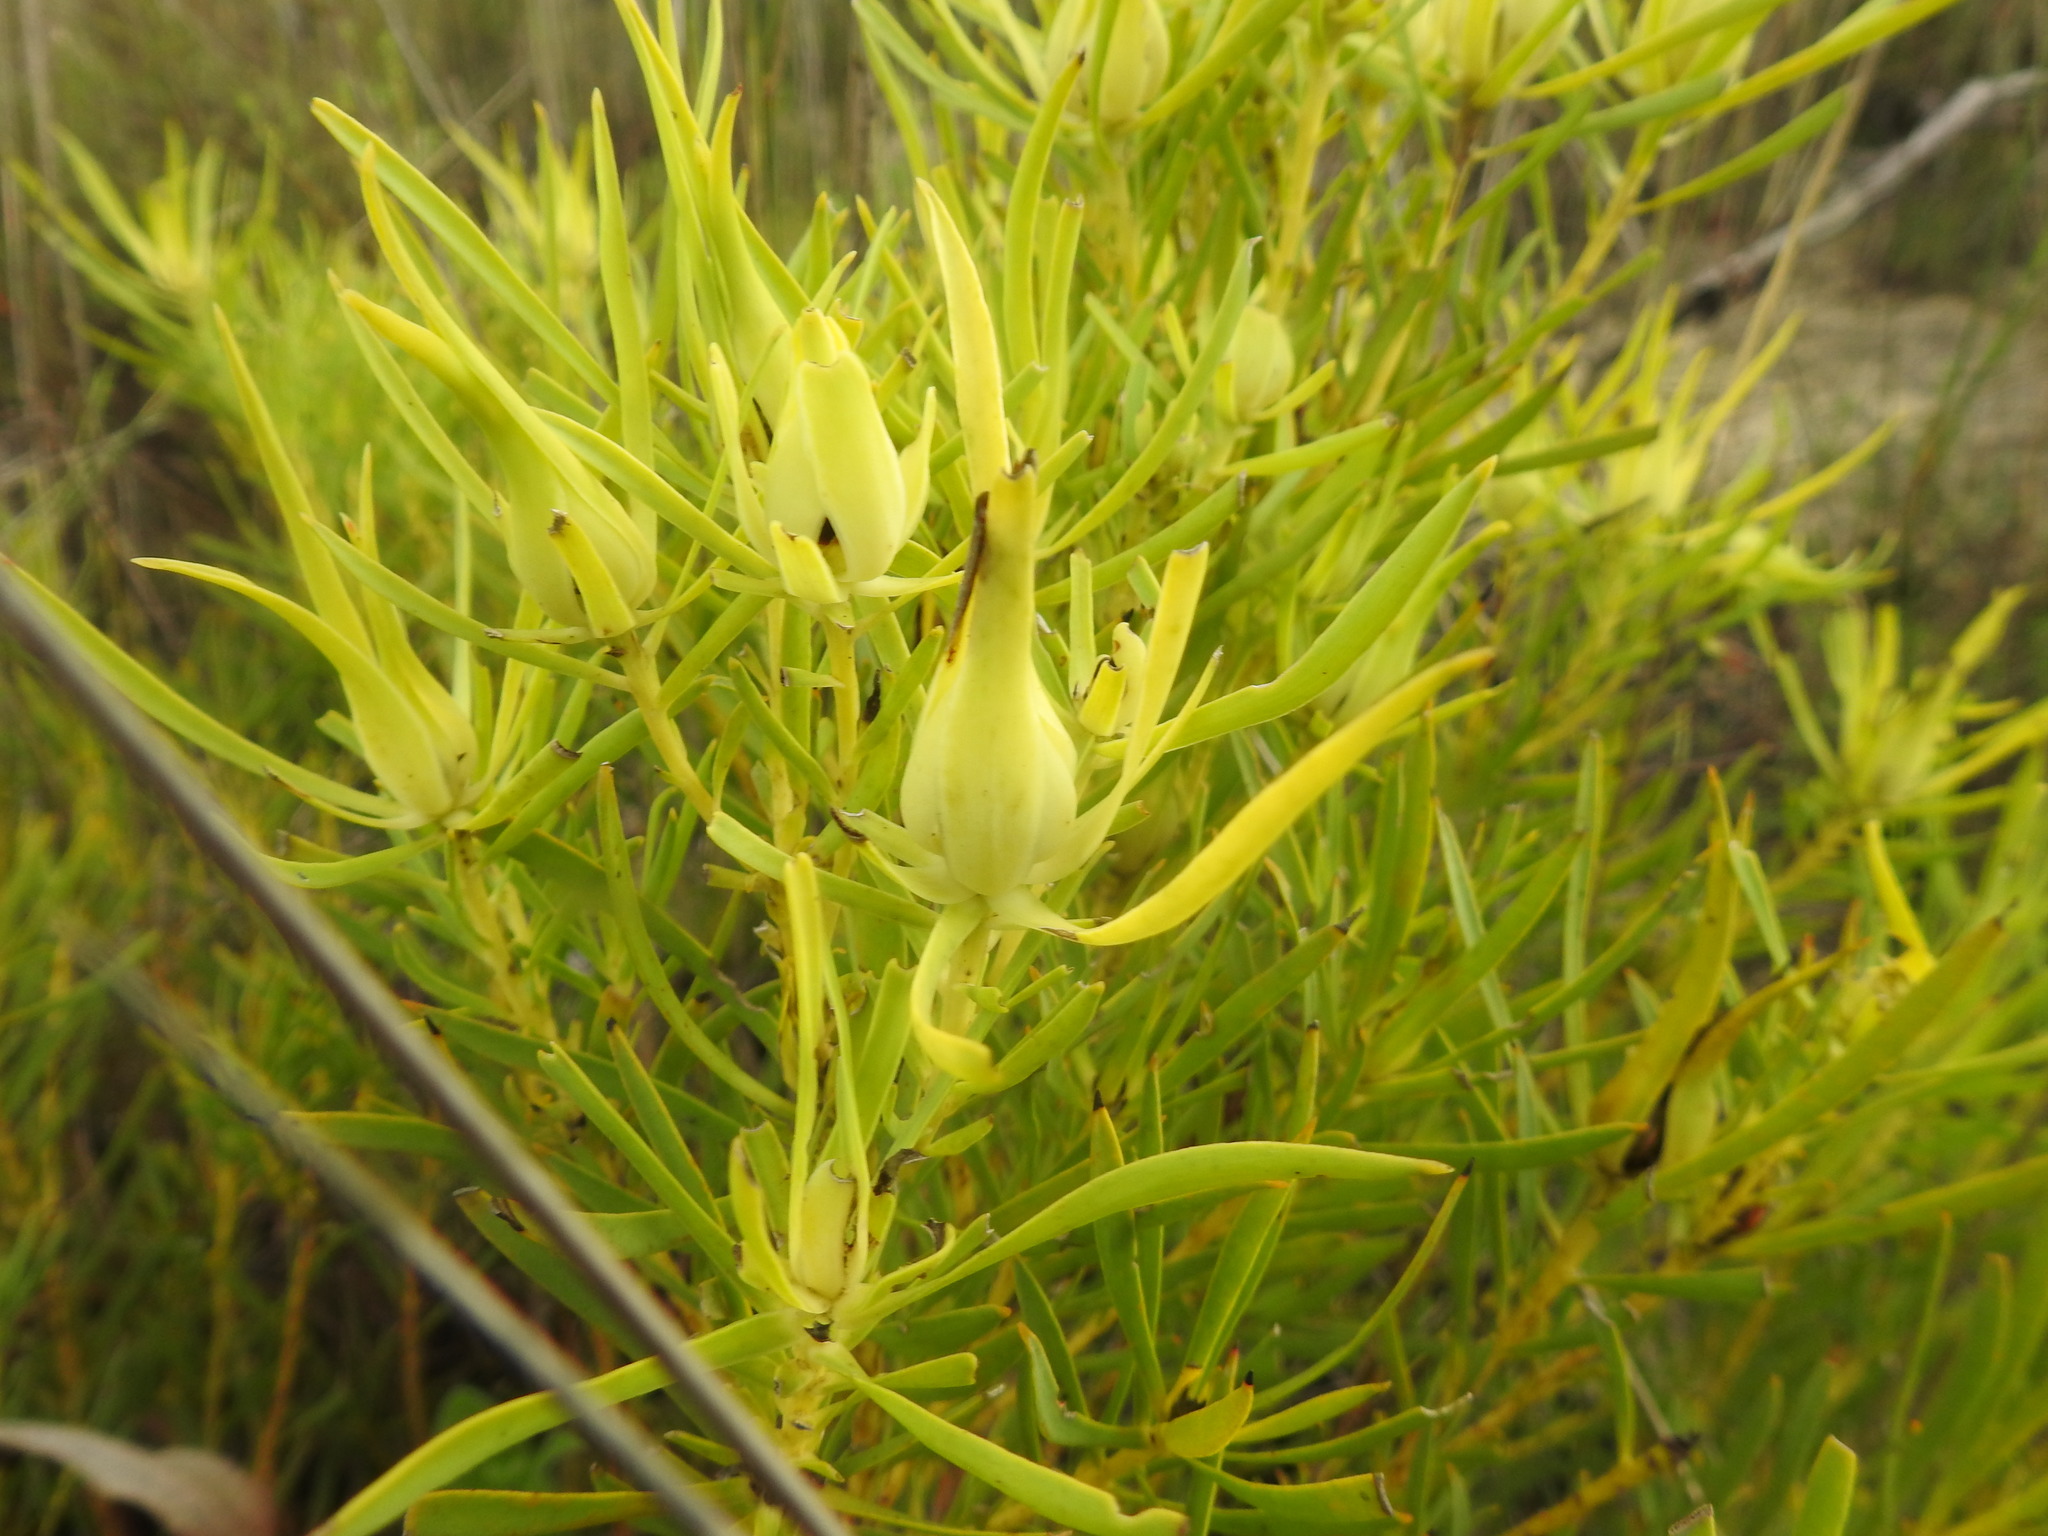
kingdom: Plantae
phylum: Tracheophyta
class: Magnoliopsida
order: Proteales
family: Proteaceae
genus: Leucadendron
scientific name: Leucadendron salignum
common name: Common sunshine conebush
